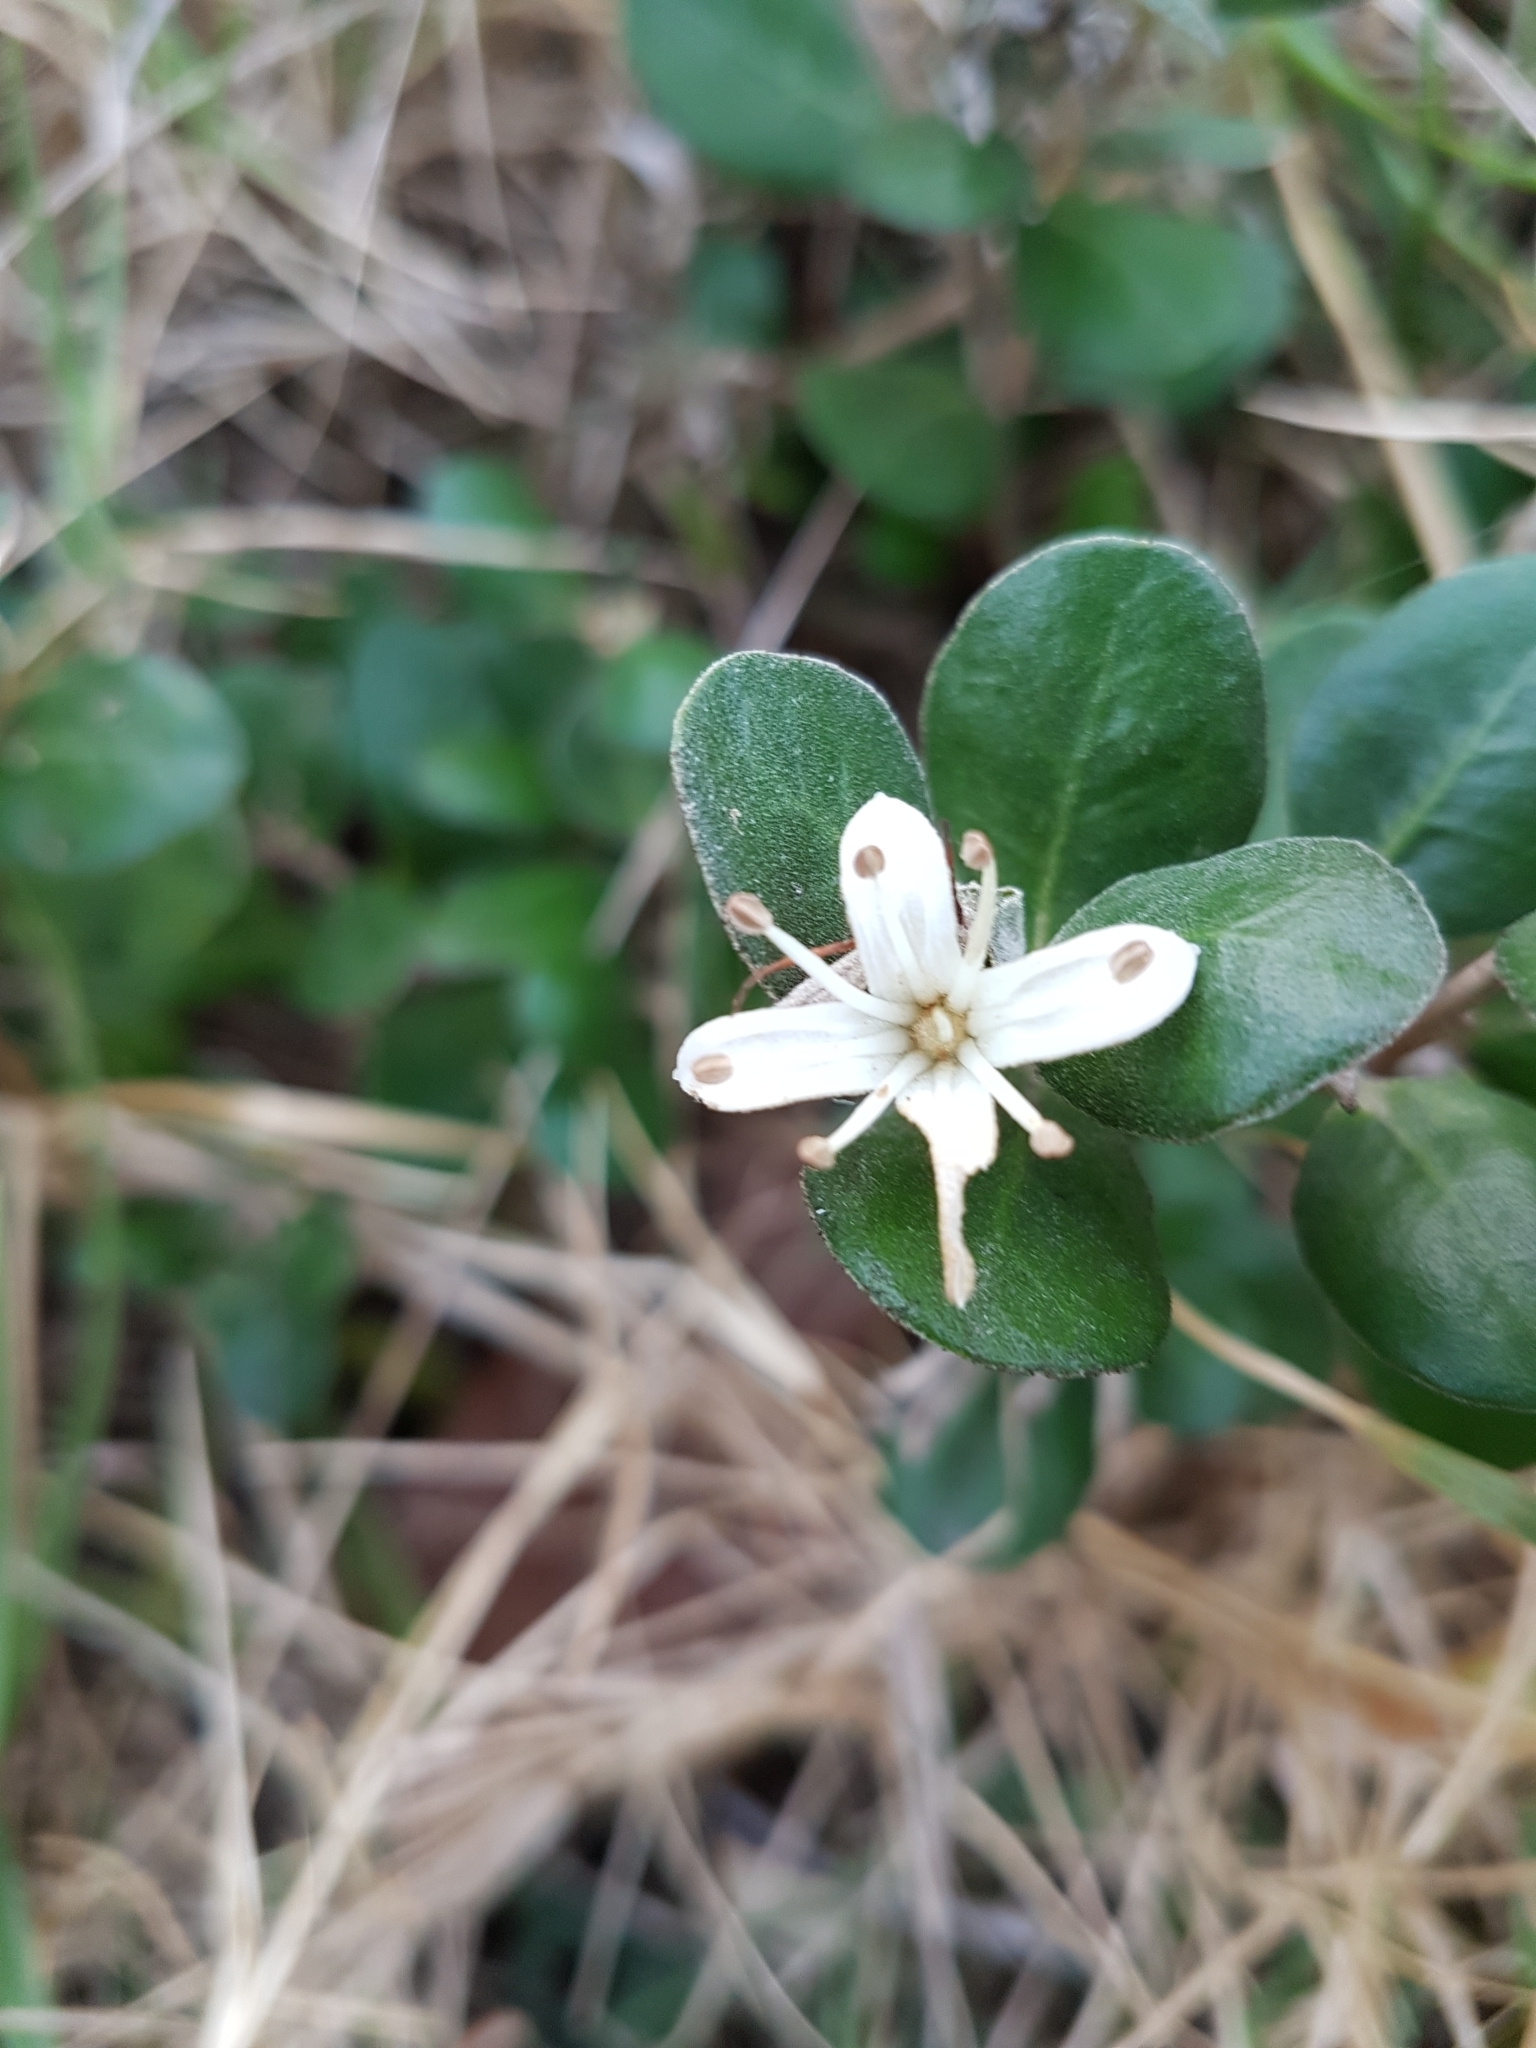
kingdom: Plantae
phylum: Tracheophyta
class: Magnoliopsida
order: Sapindales
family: Rutaceae
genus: Correa
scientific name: Correa alba
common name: White correa
